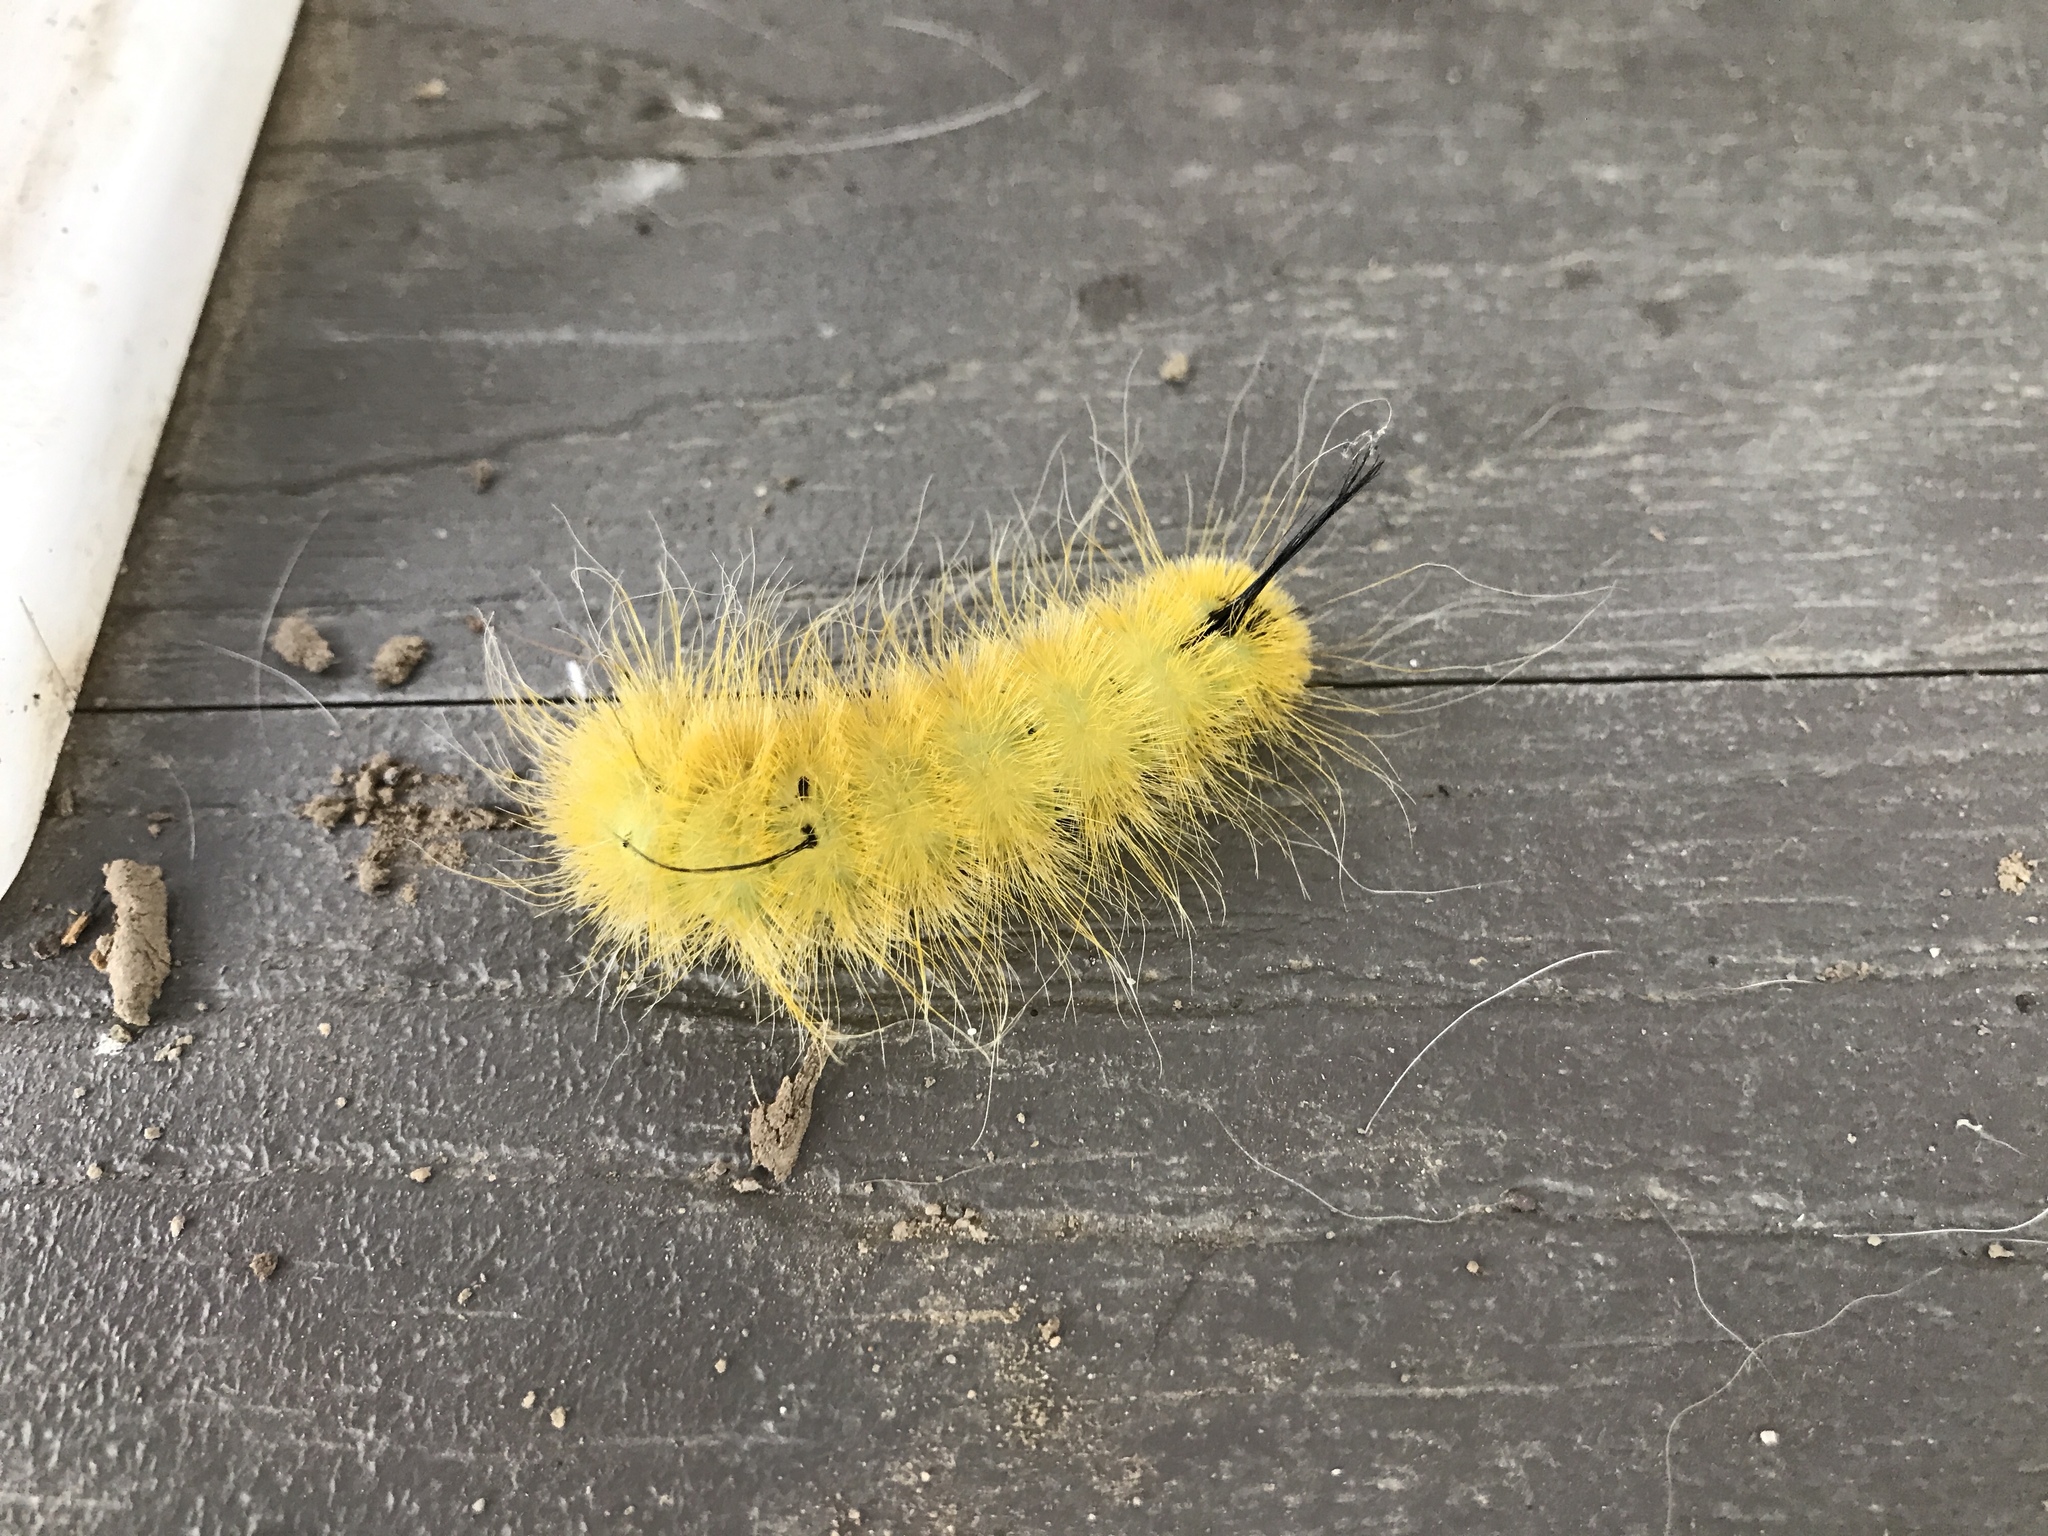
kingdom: Animalia
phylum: Arthropoda
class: Insecta
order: Lepidoptera
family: Noctuidae
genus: Acronicta
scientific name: Acronicta americana
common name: American dagger
